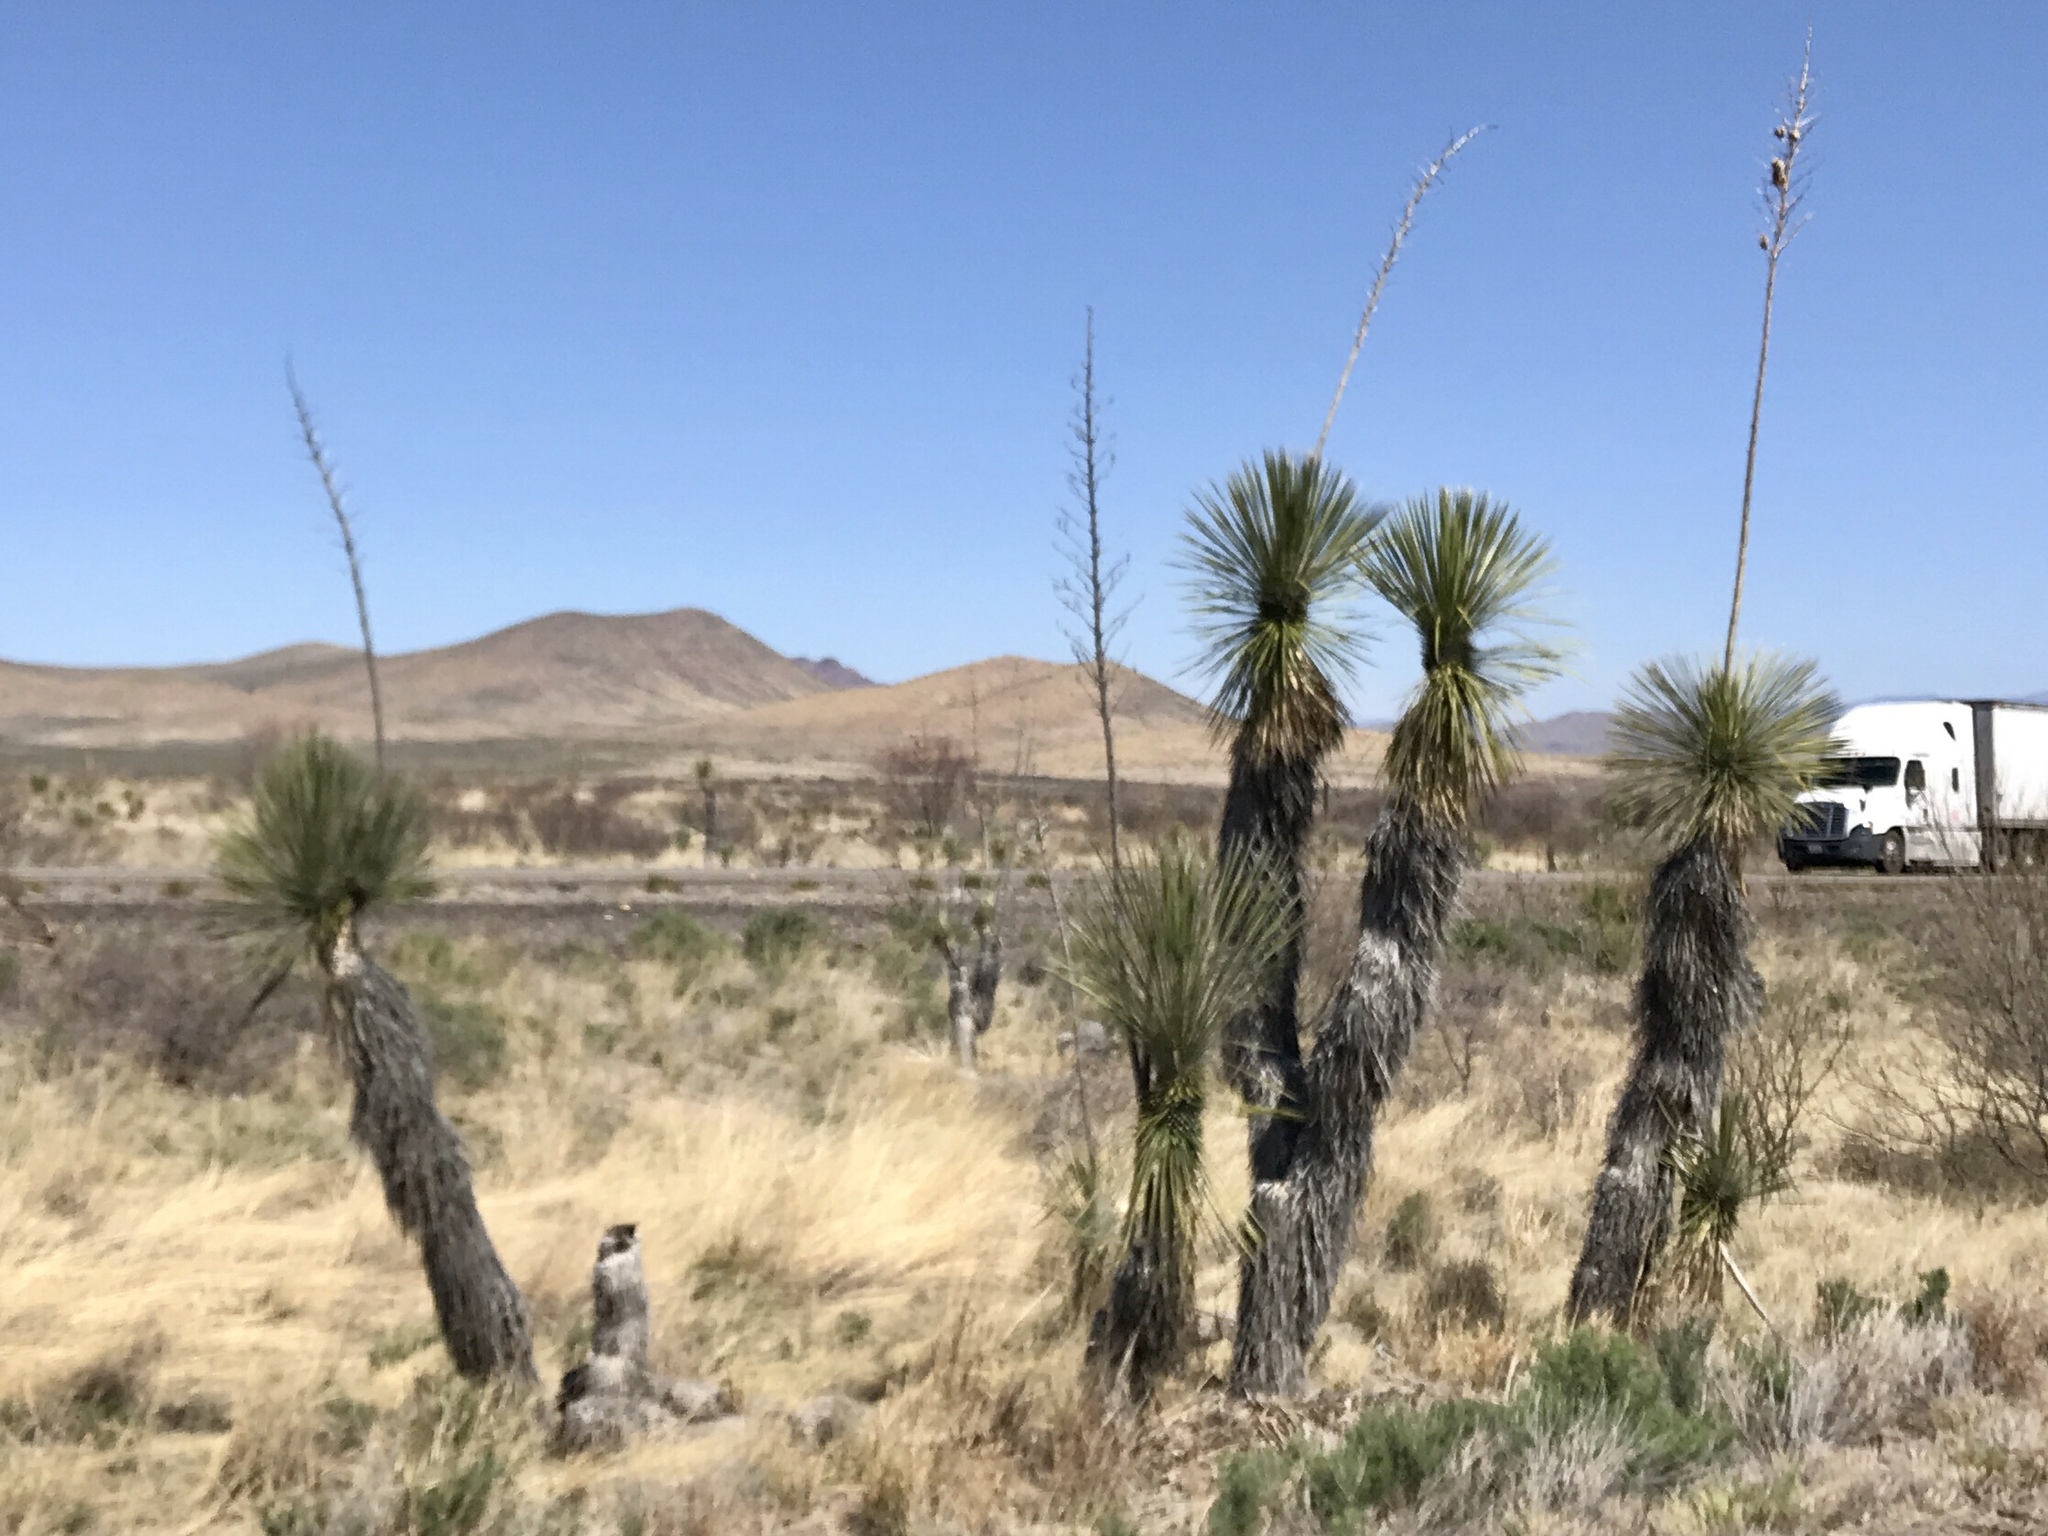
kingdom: Plantae
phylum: Tracheophyta
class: Liliopsida
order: Asparagales
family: Asparagaceae
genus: Yucca
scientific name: Yucca elata
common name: Palmella
